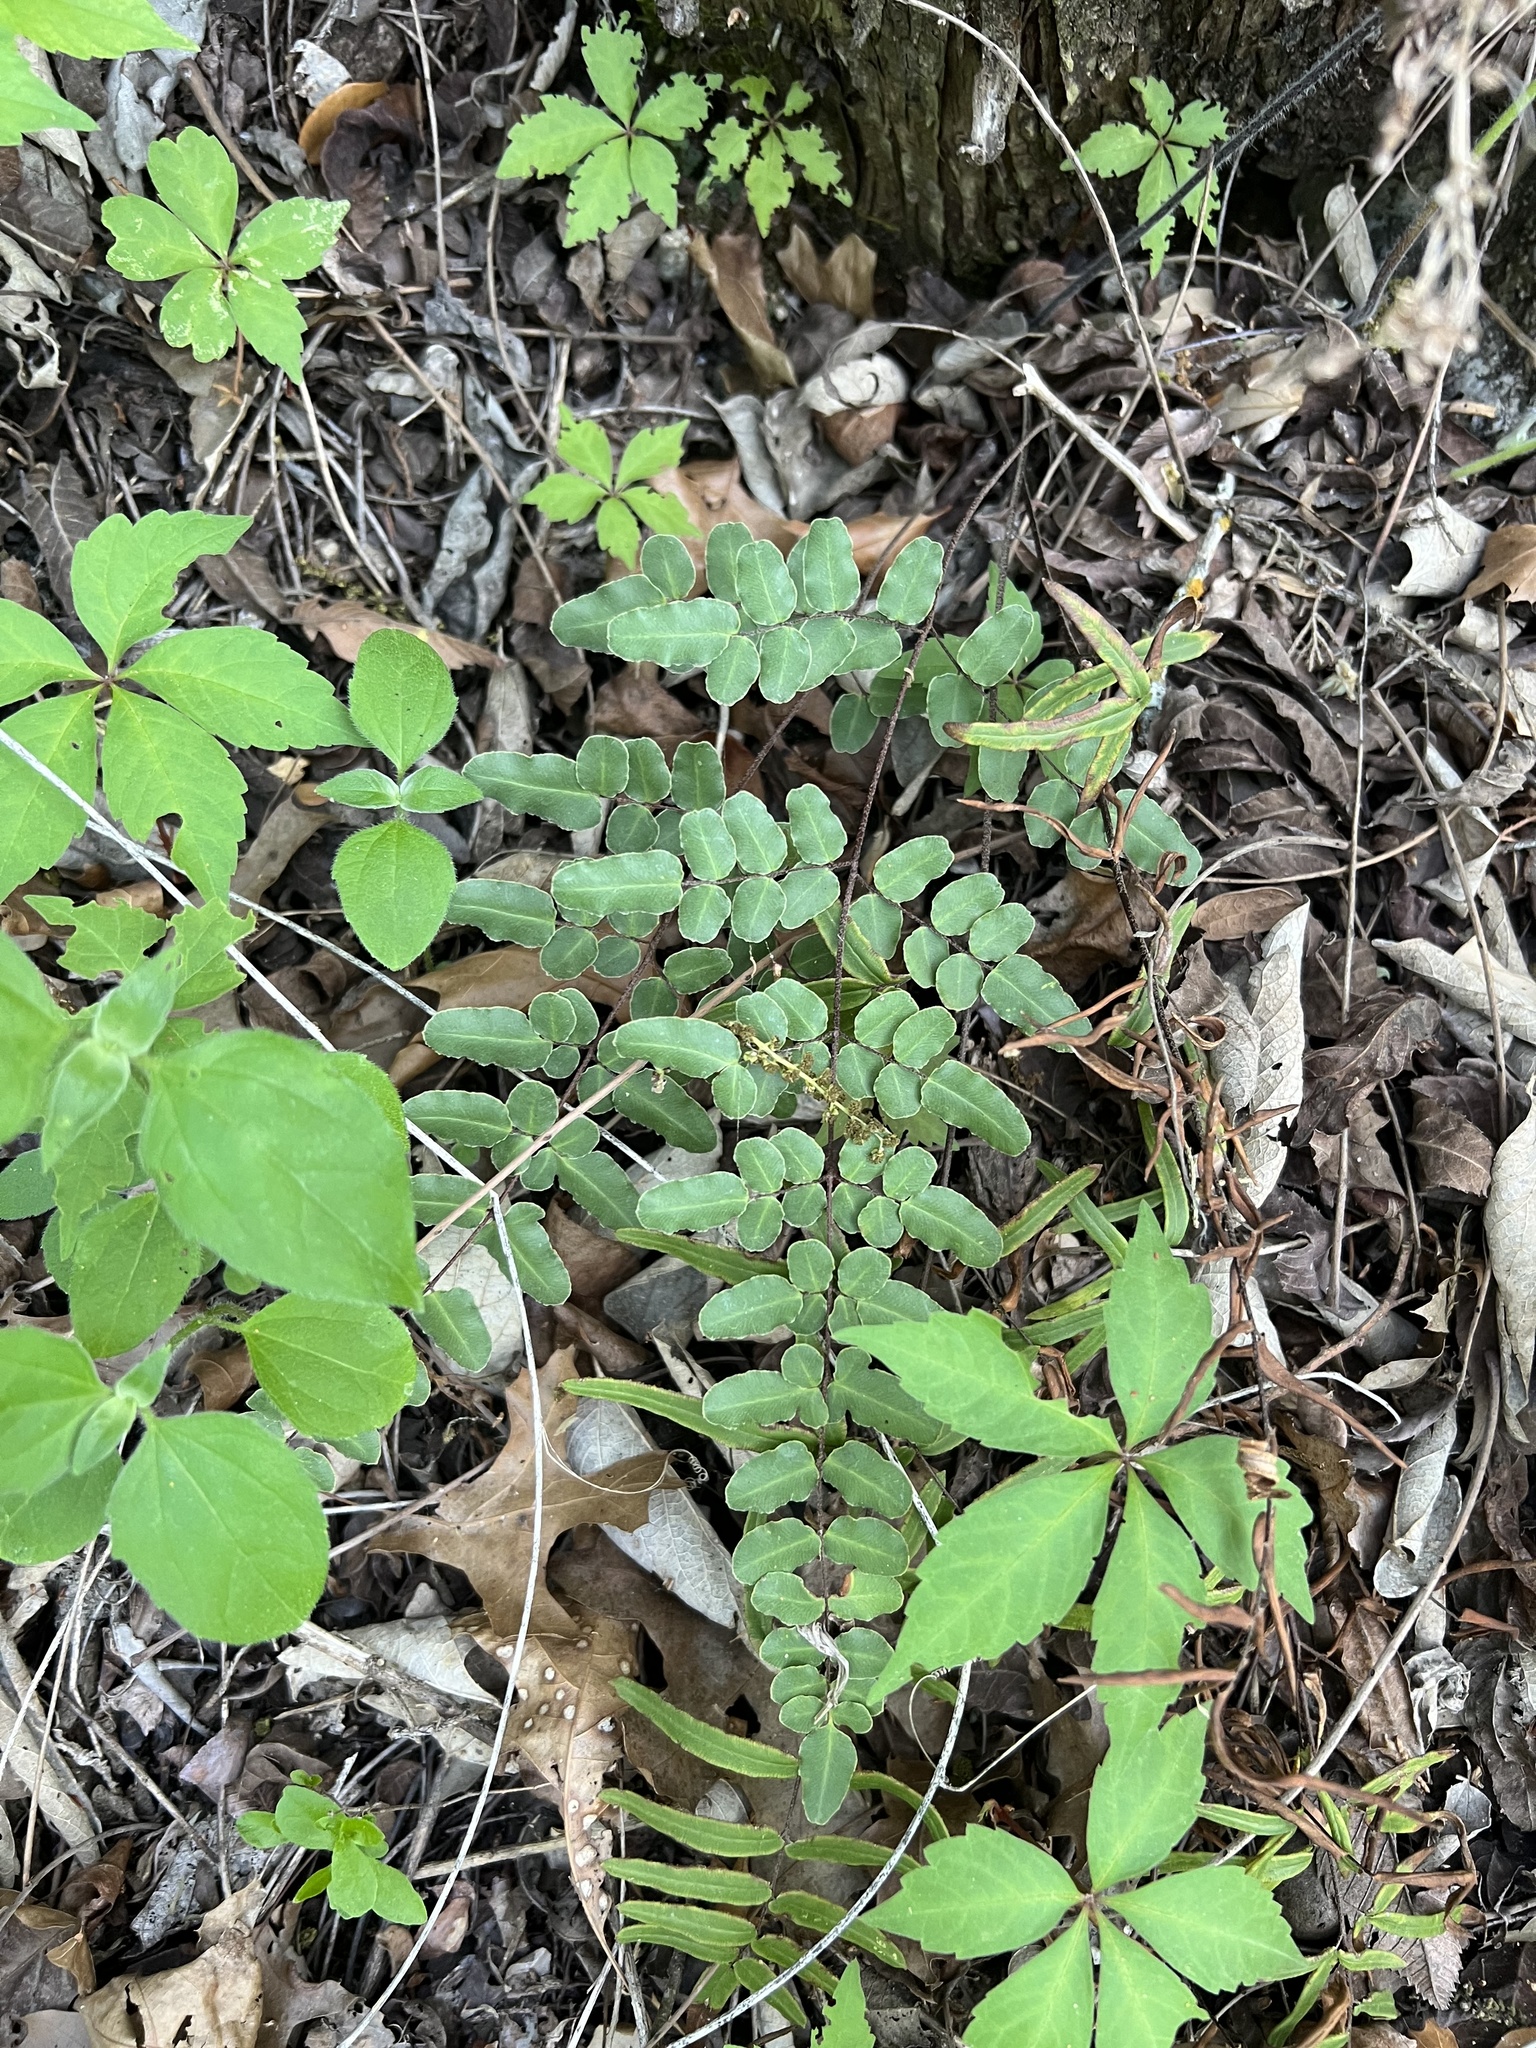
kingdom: Plantae
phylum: Tracheophyta
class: Polypodiopsida
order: Polypodiales
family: Pteridaceae
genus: Pellaea
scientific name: Pellaea atropurpurea
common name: Hairy cliffbrake
